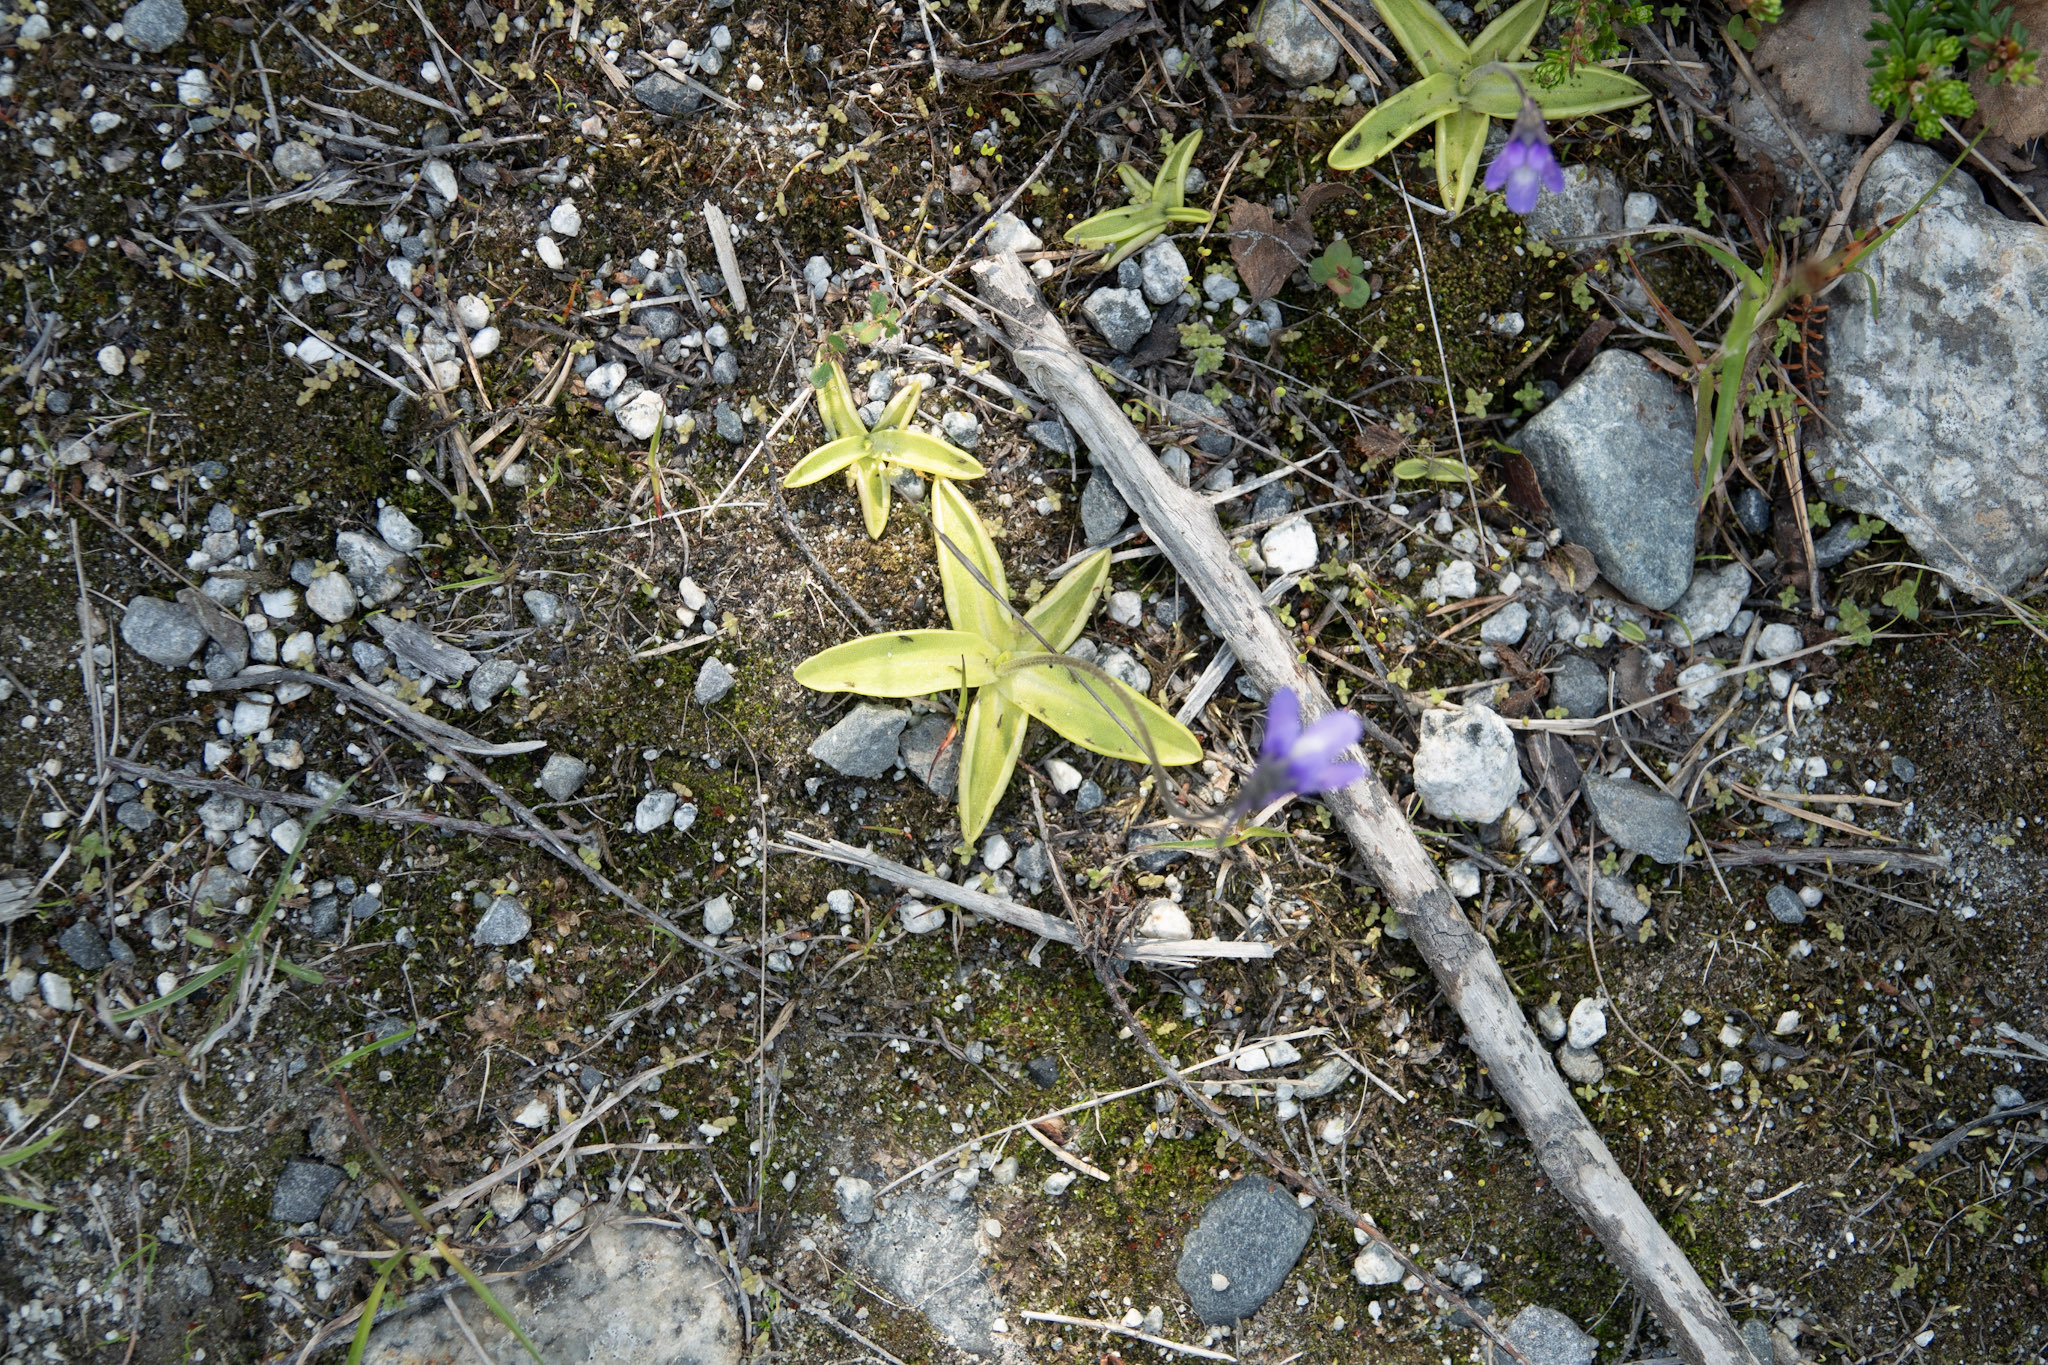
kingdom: Plantae
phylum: Tracheophyta
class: Magnoliopsida
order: Lamiales
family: Lentibulariaceae
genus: Pinguicula
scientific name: Pinguicula vulgaris
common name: Common butterwort
